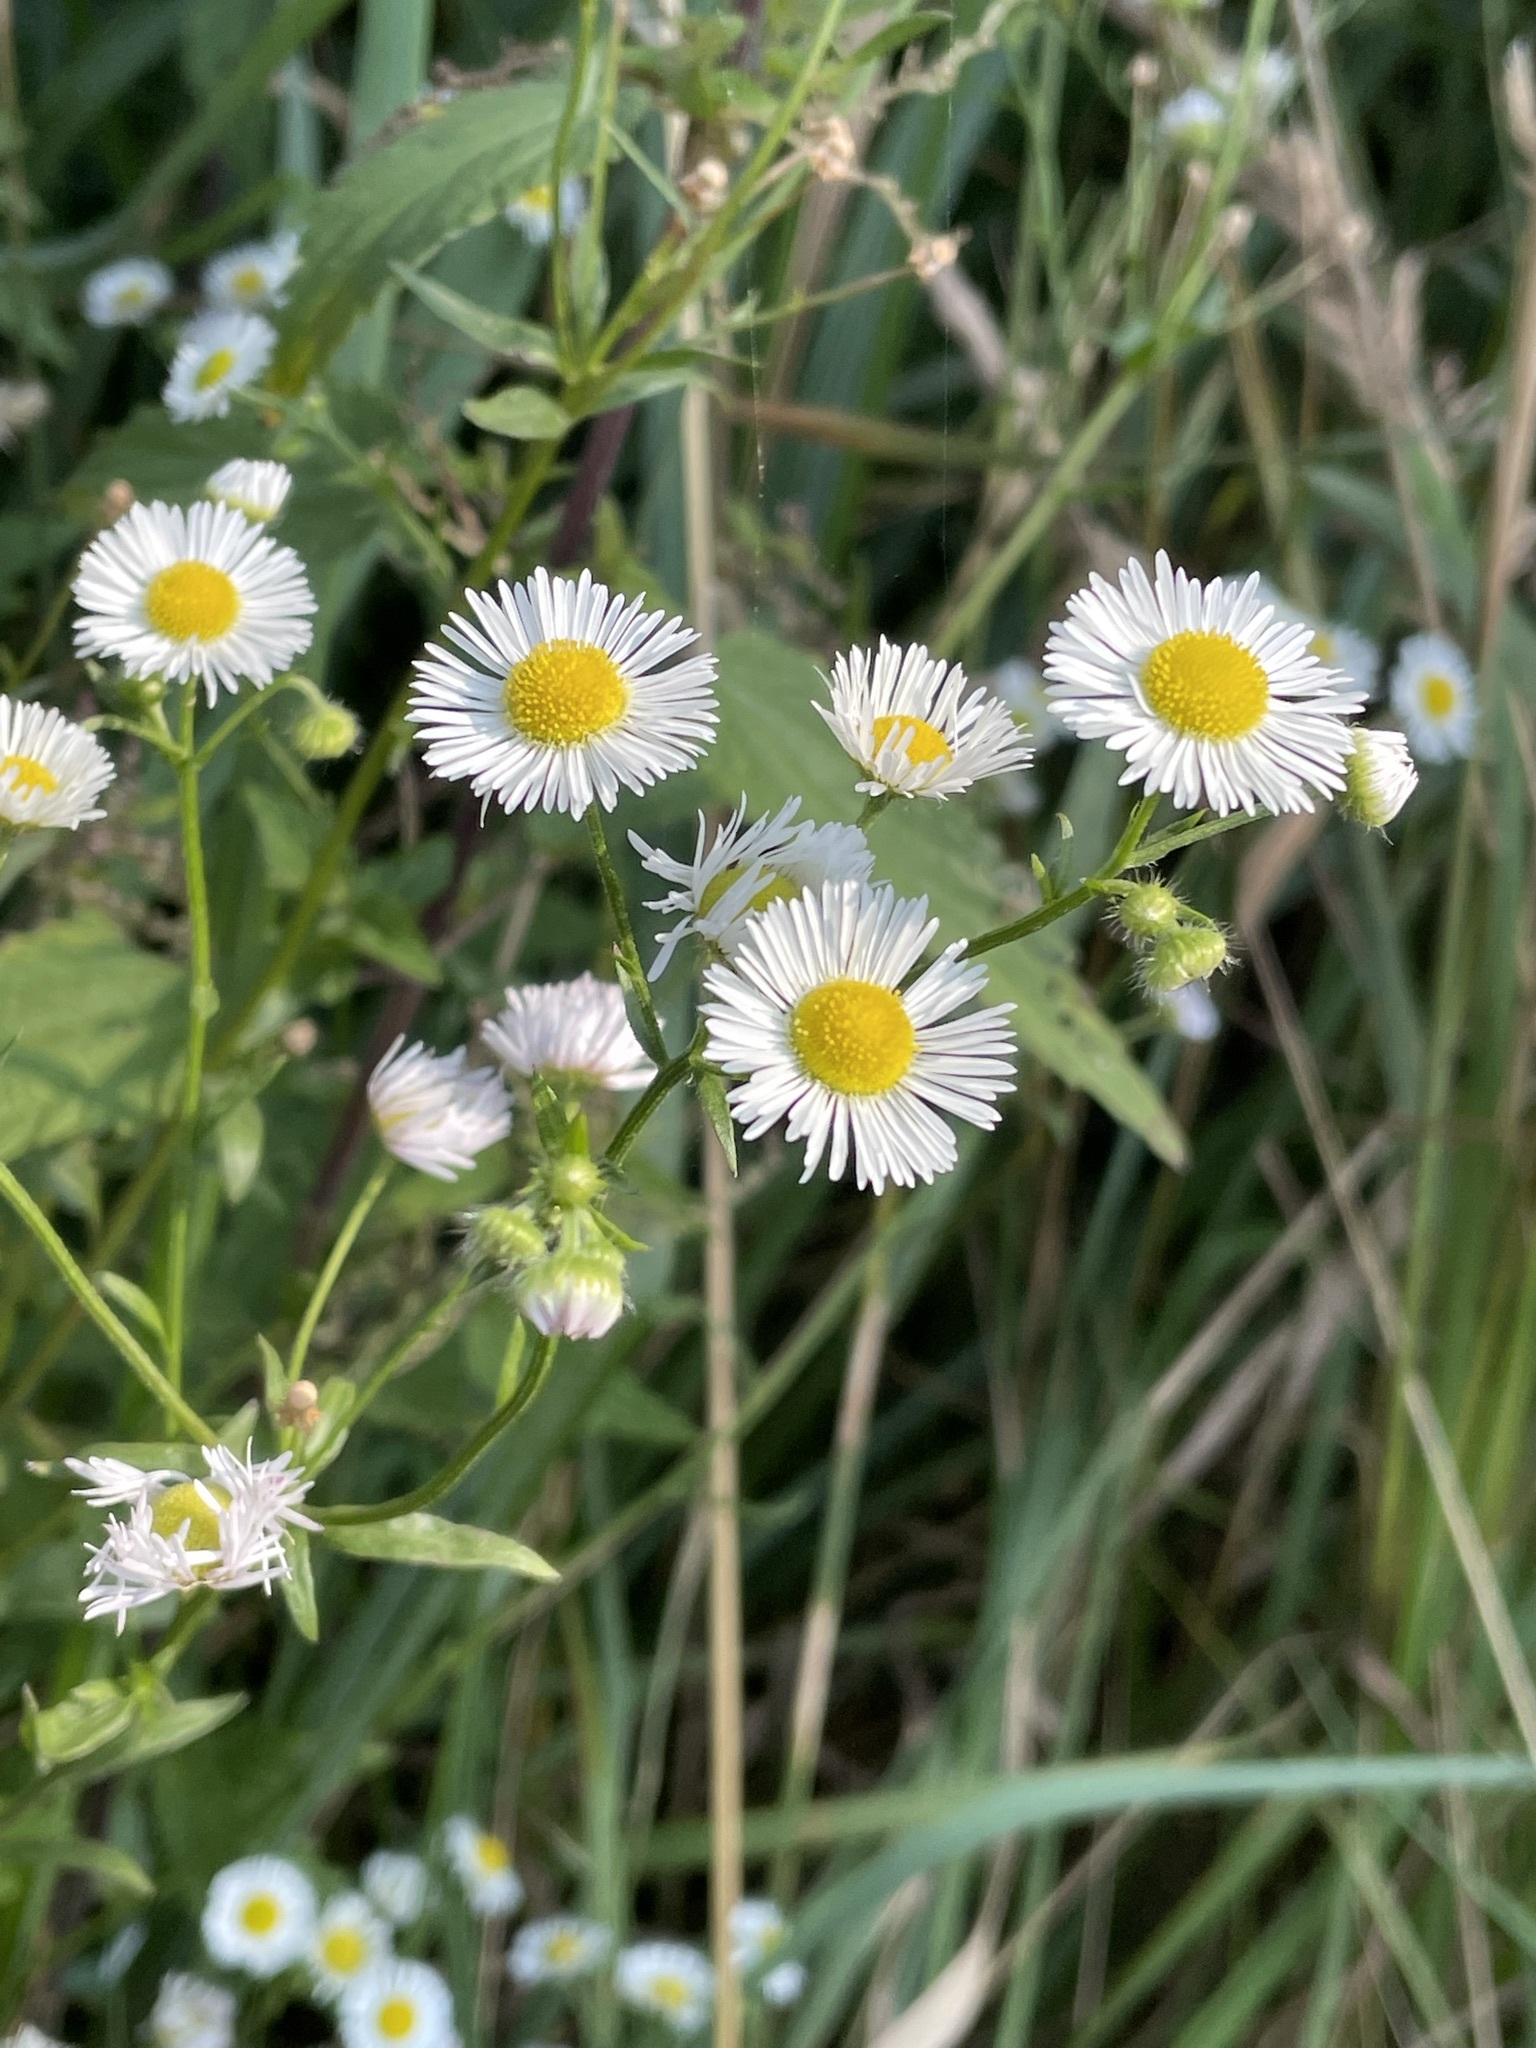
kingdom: Plantae
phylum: Tracheophyta
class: Magnoliopsida
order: Asterales
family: Asteraceae
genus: Erigeron
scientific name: Erigeron annuus
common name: Tall fleabane
